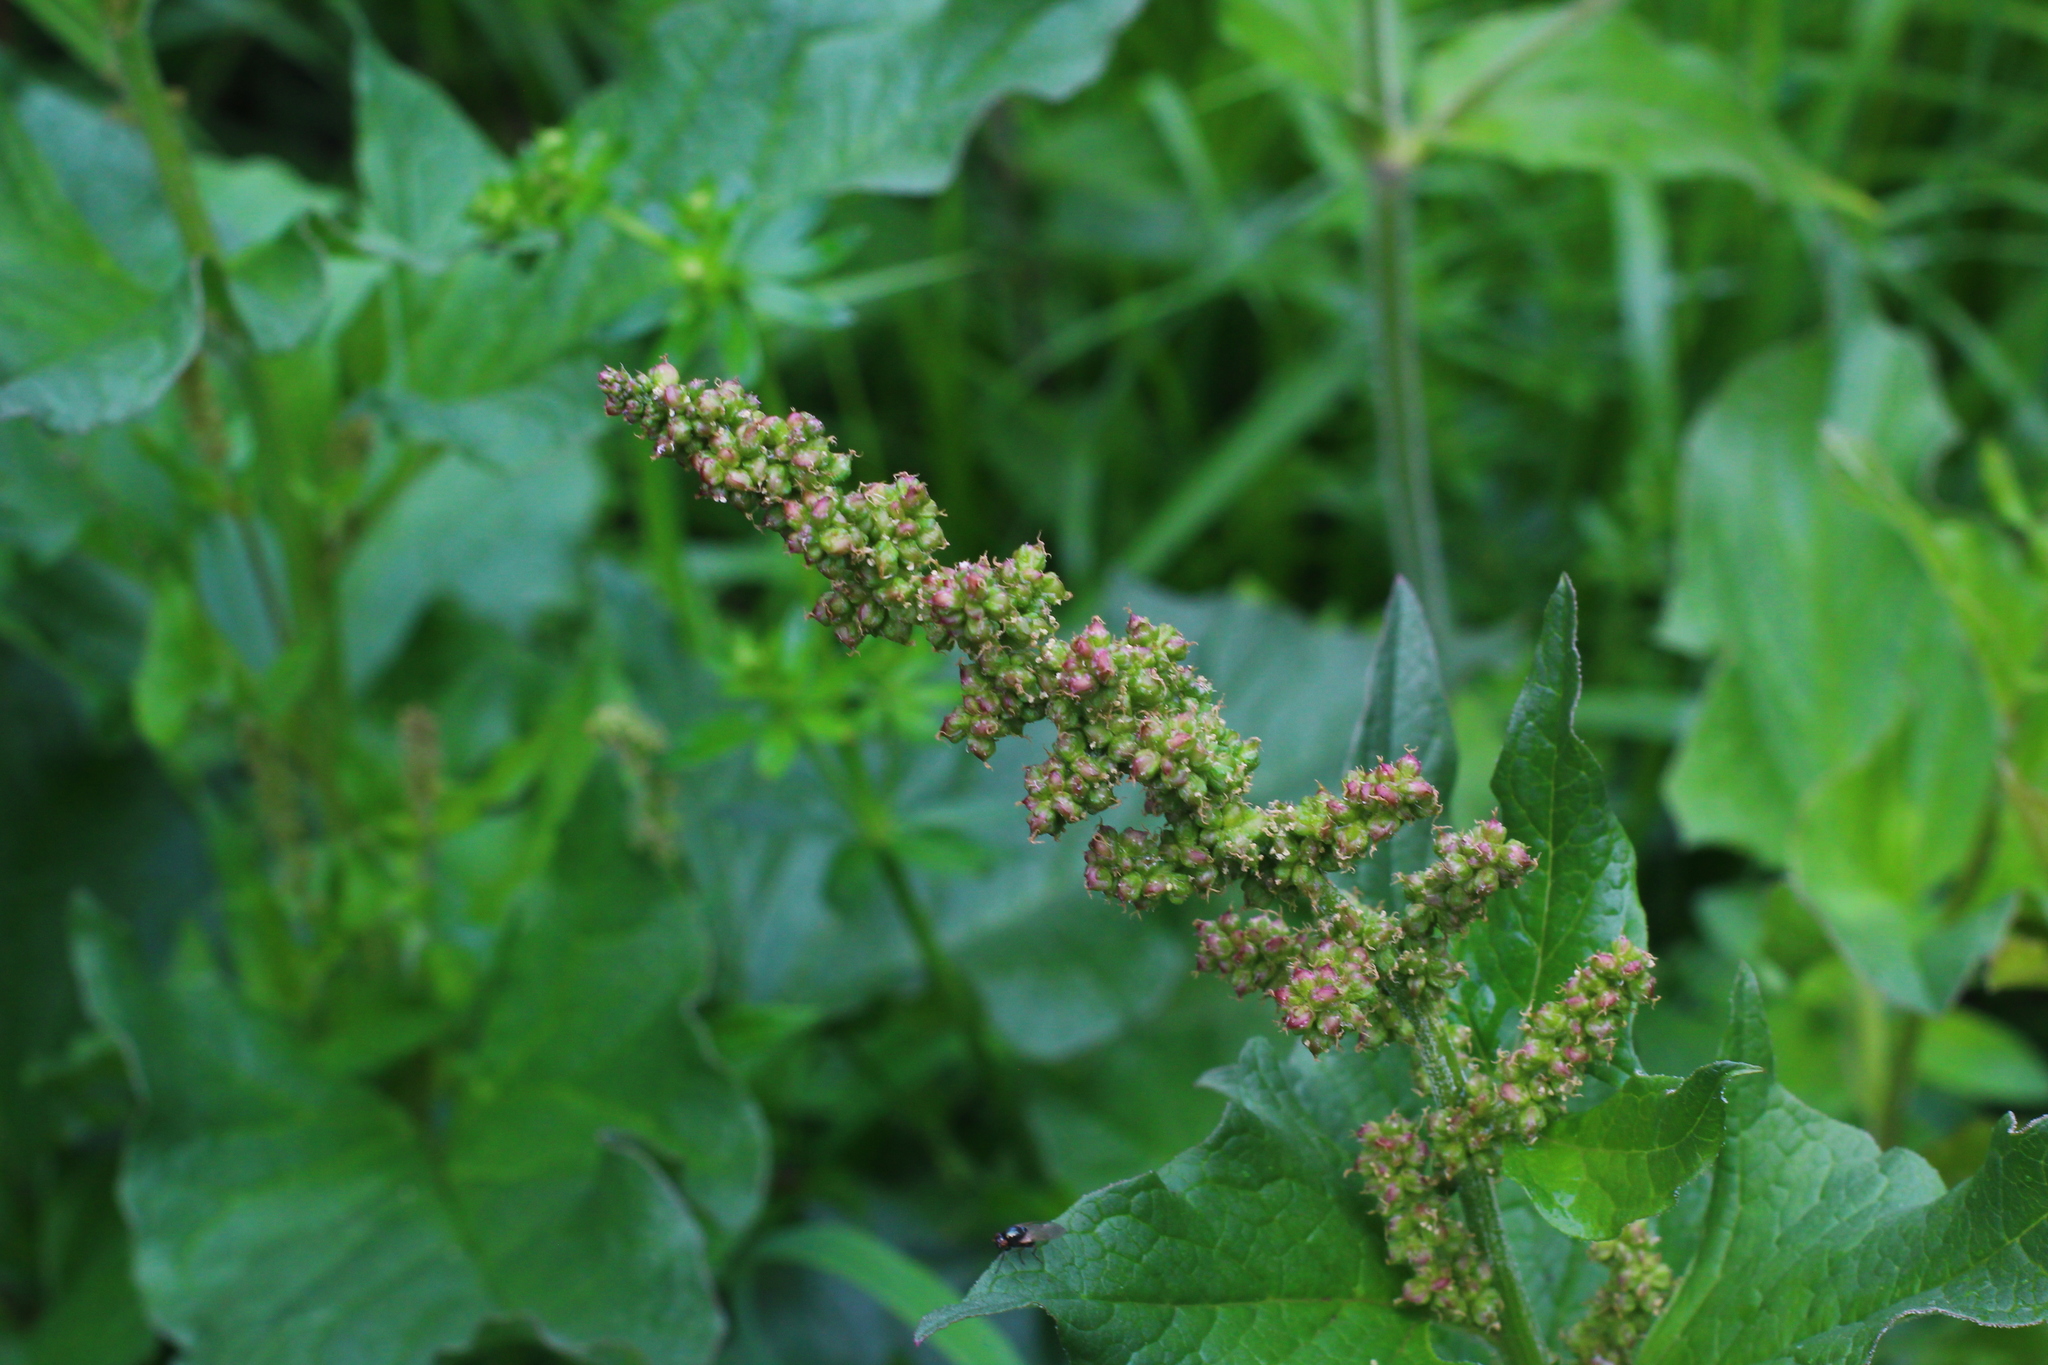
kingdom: Plantae
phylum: Tracheophyta
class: Magnoliopsida
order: Caryophyllales
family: Amaranthaceae
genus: Blitum
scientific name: Blitum bonus-henricus
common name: Good king henry
